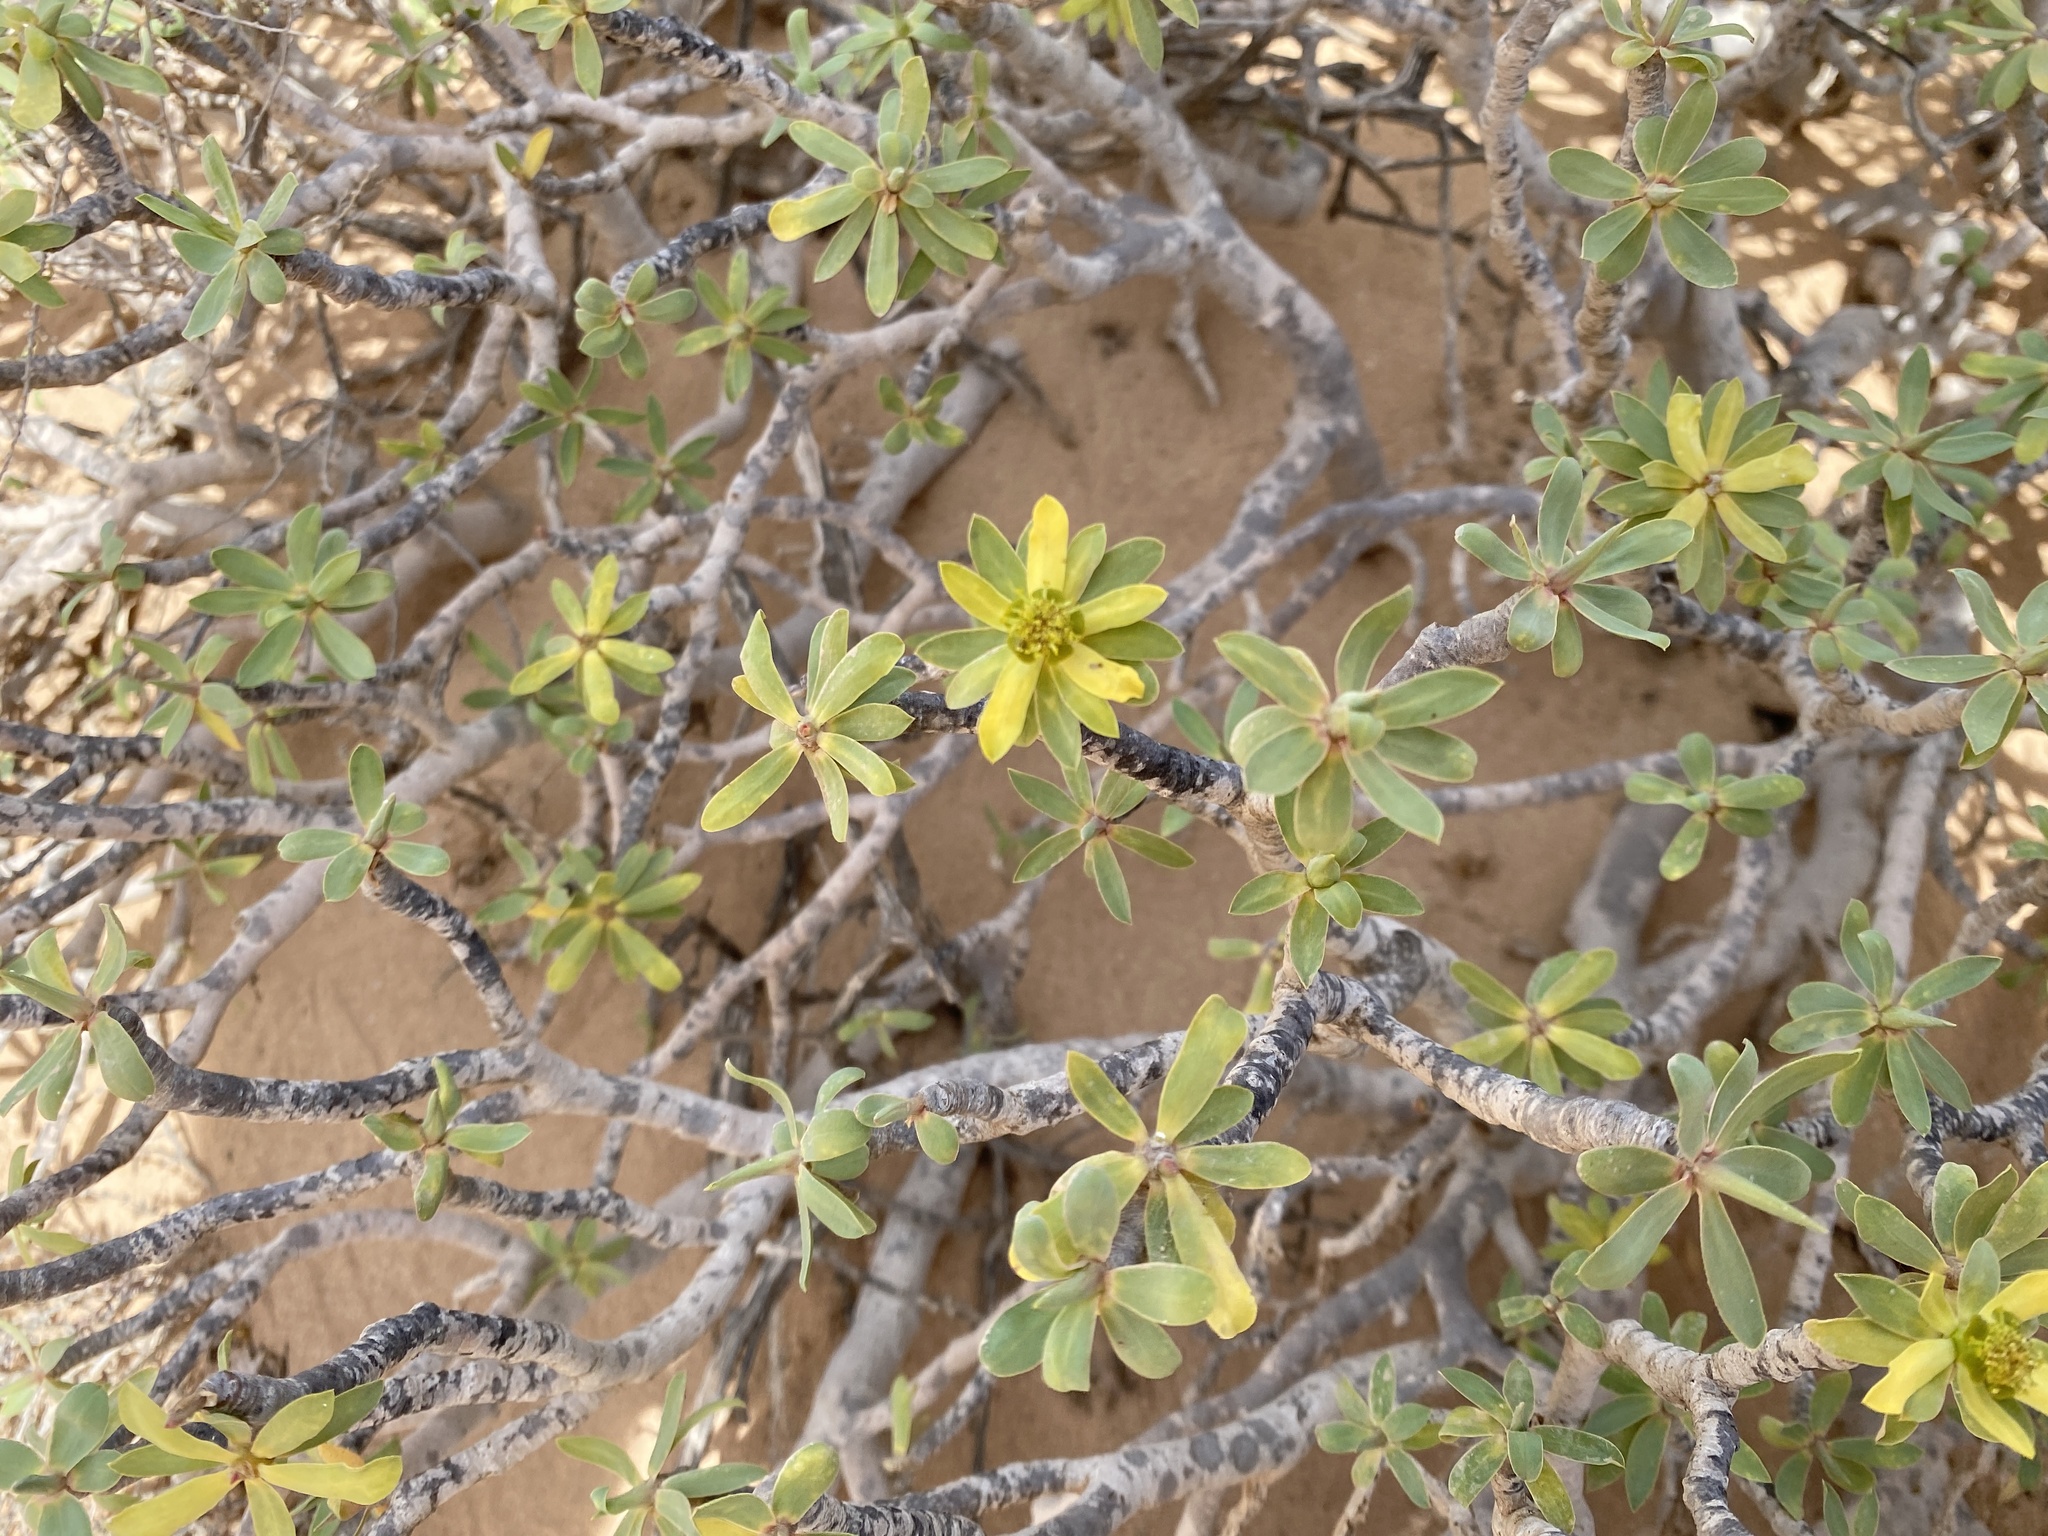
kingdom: Plantae
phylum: Tracheophyta
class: Magnoliopsida
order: Malpighiales
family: Euphorbiaceae
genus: Euphorbia
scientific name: Euphorbia balsamifera
